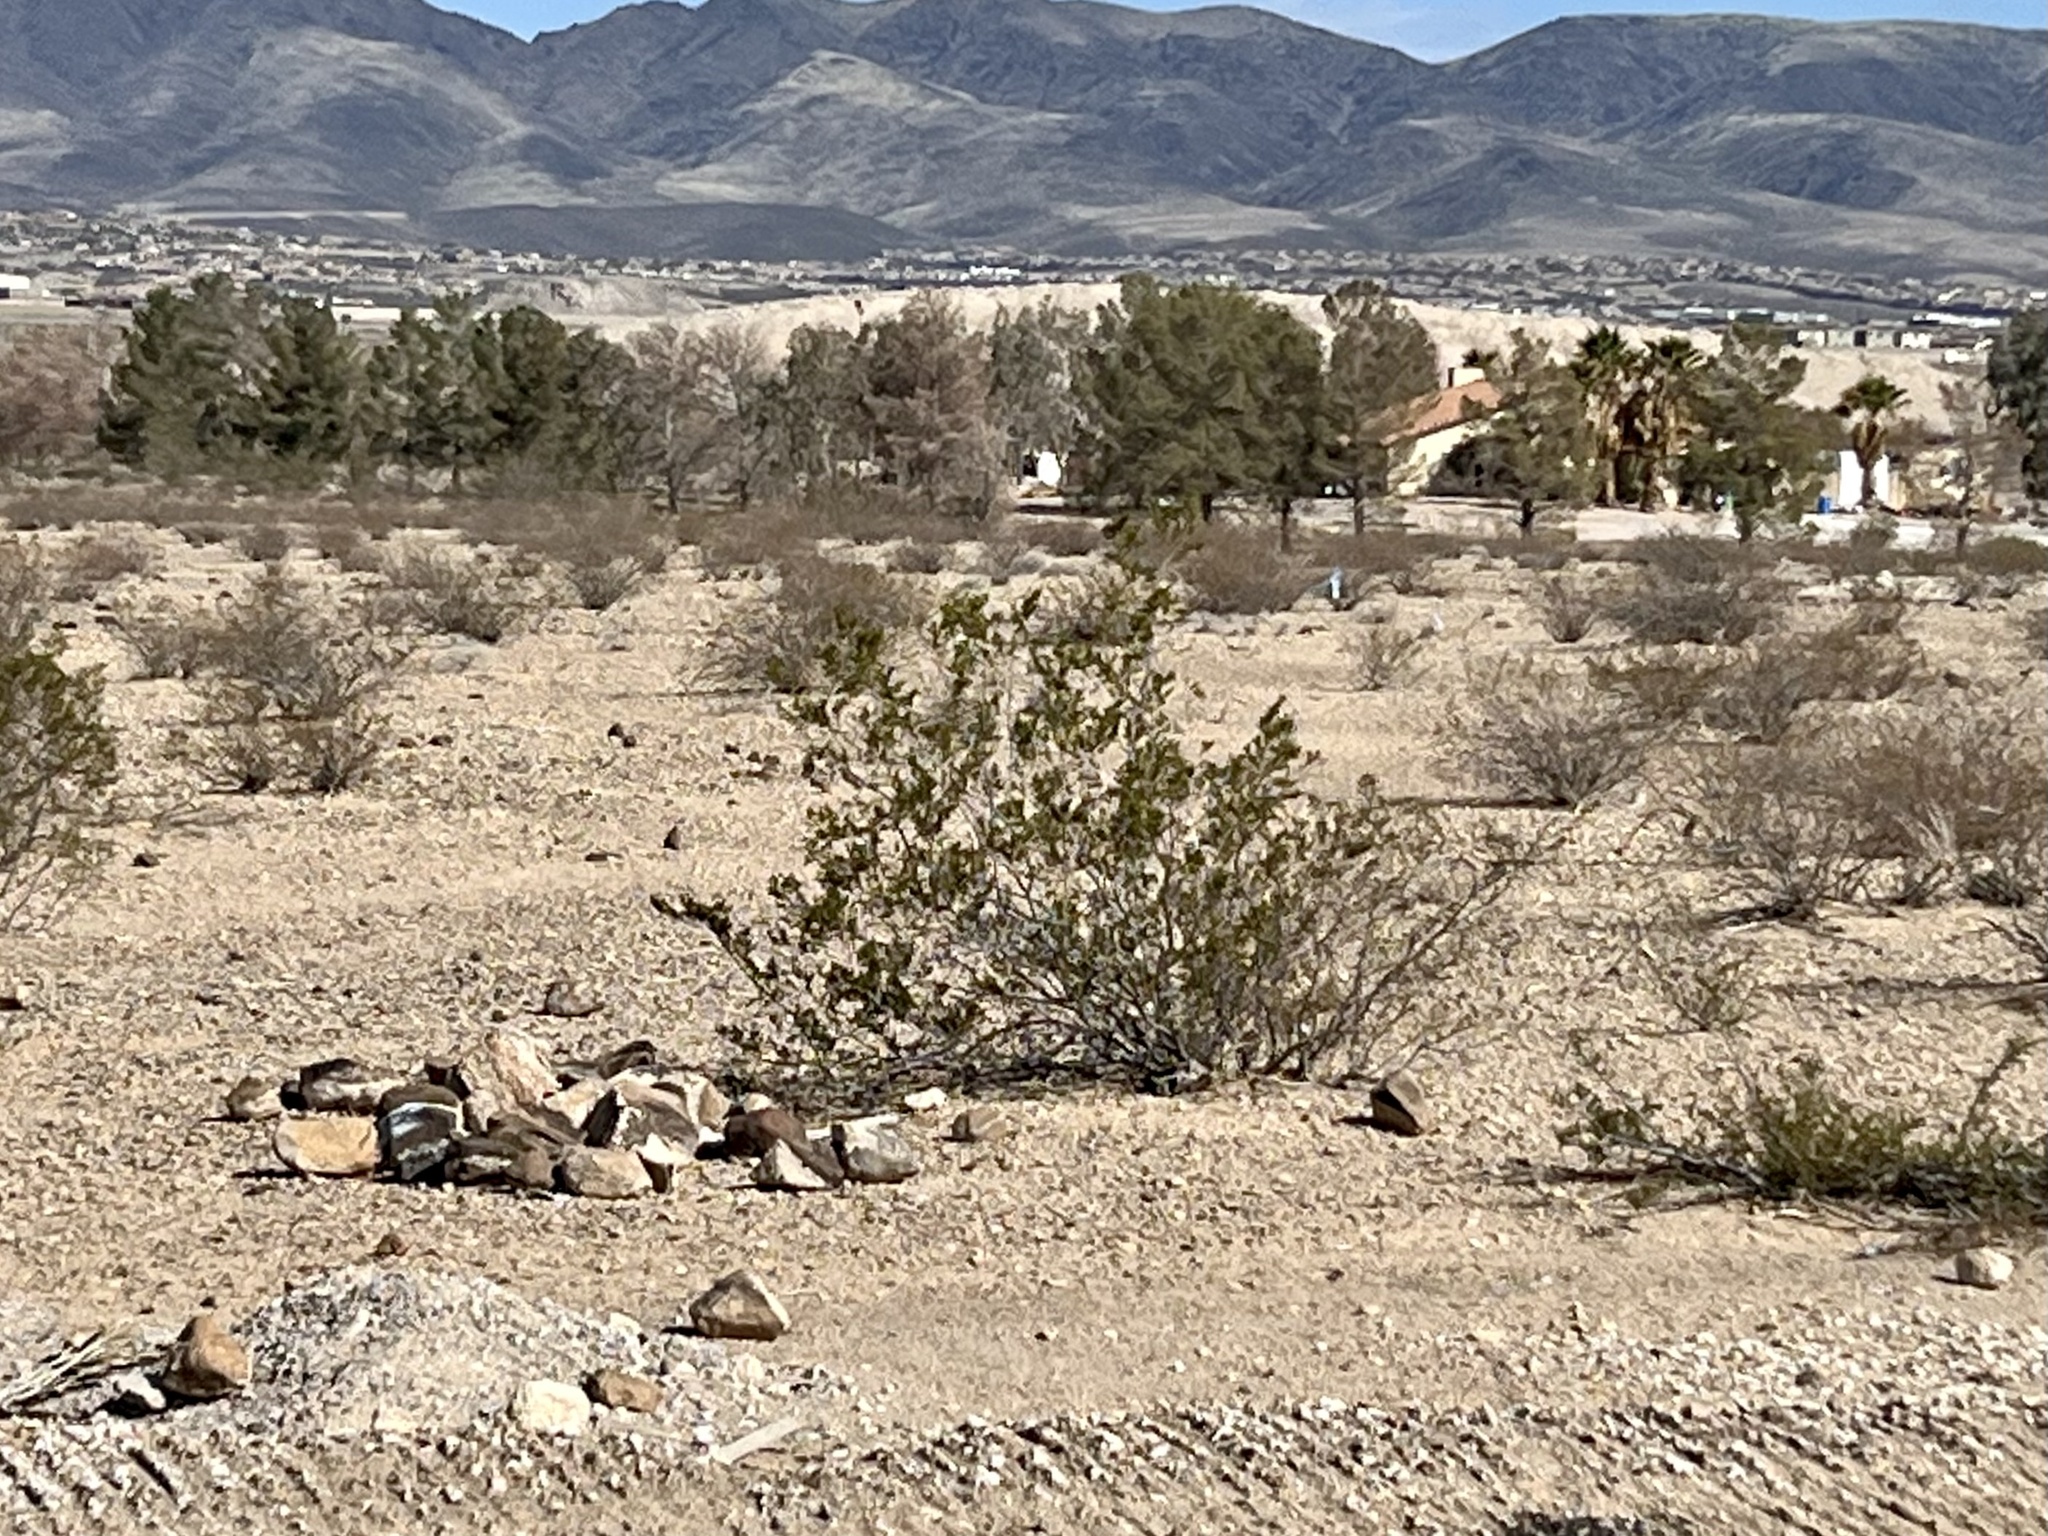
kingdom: Plantae
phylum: Tracheophyta
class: Magnoliopsida
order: Zygophyllales
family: Zygophyllaceae
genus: Larrea
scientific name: Larrea tridentata
